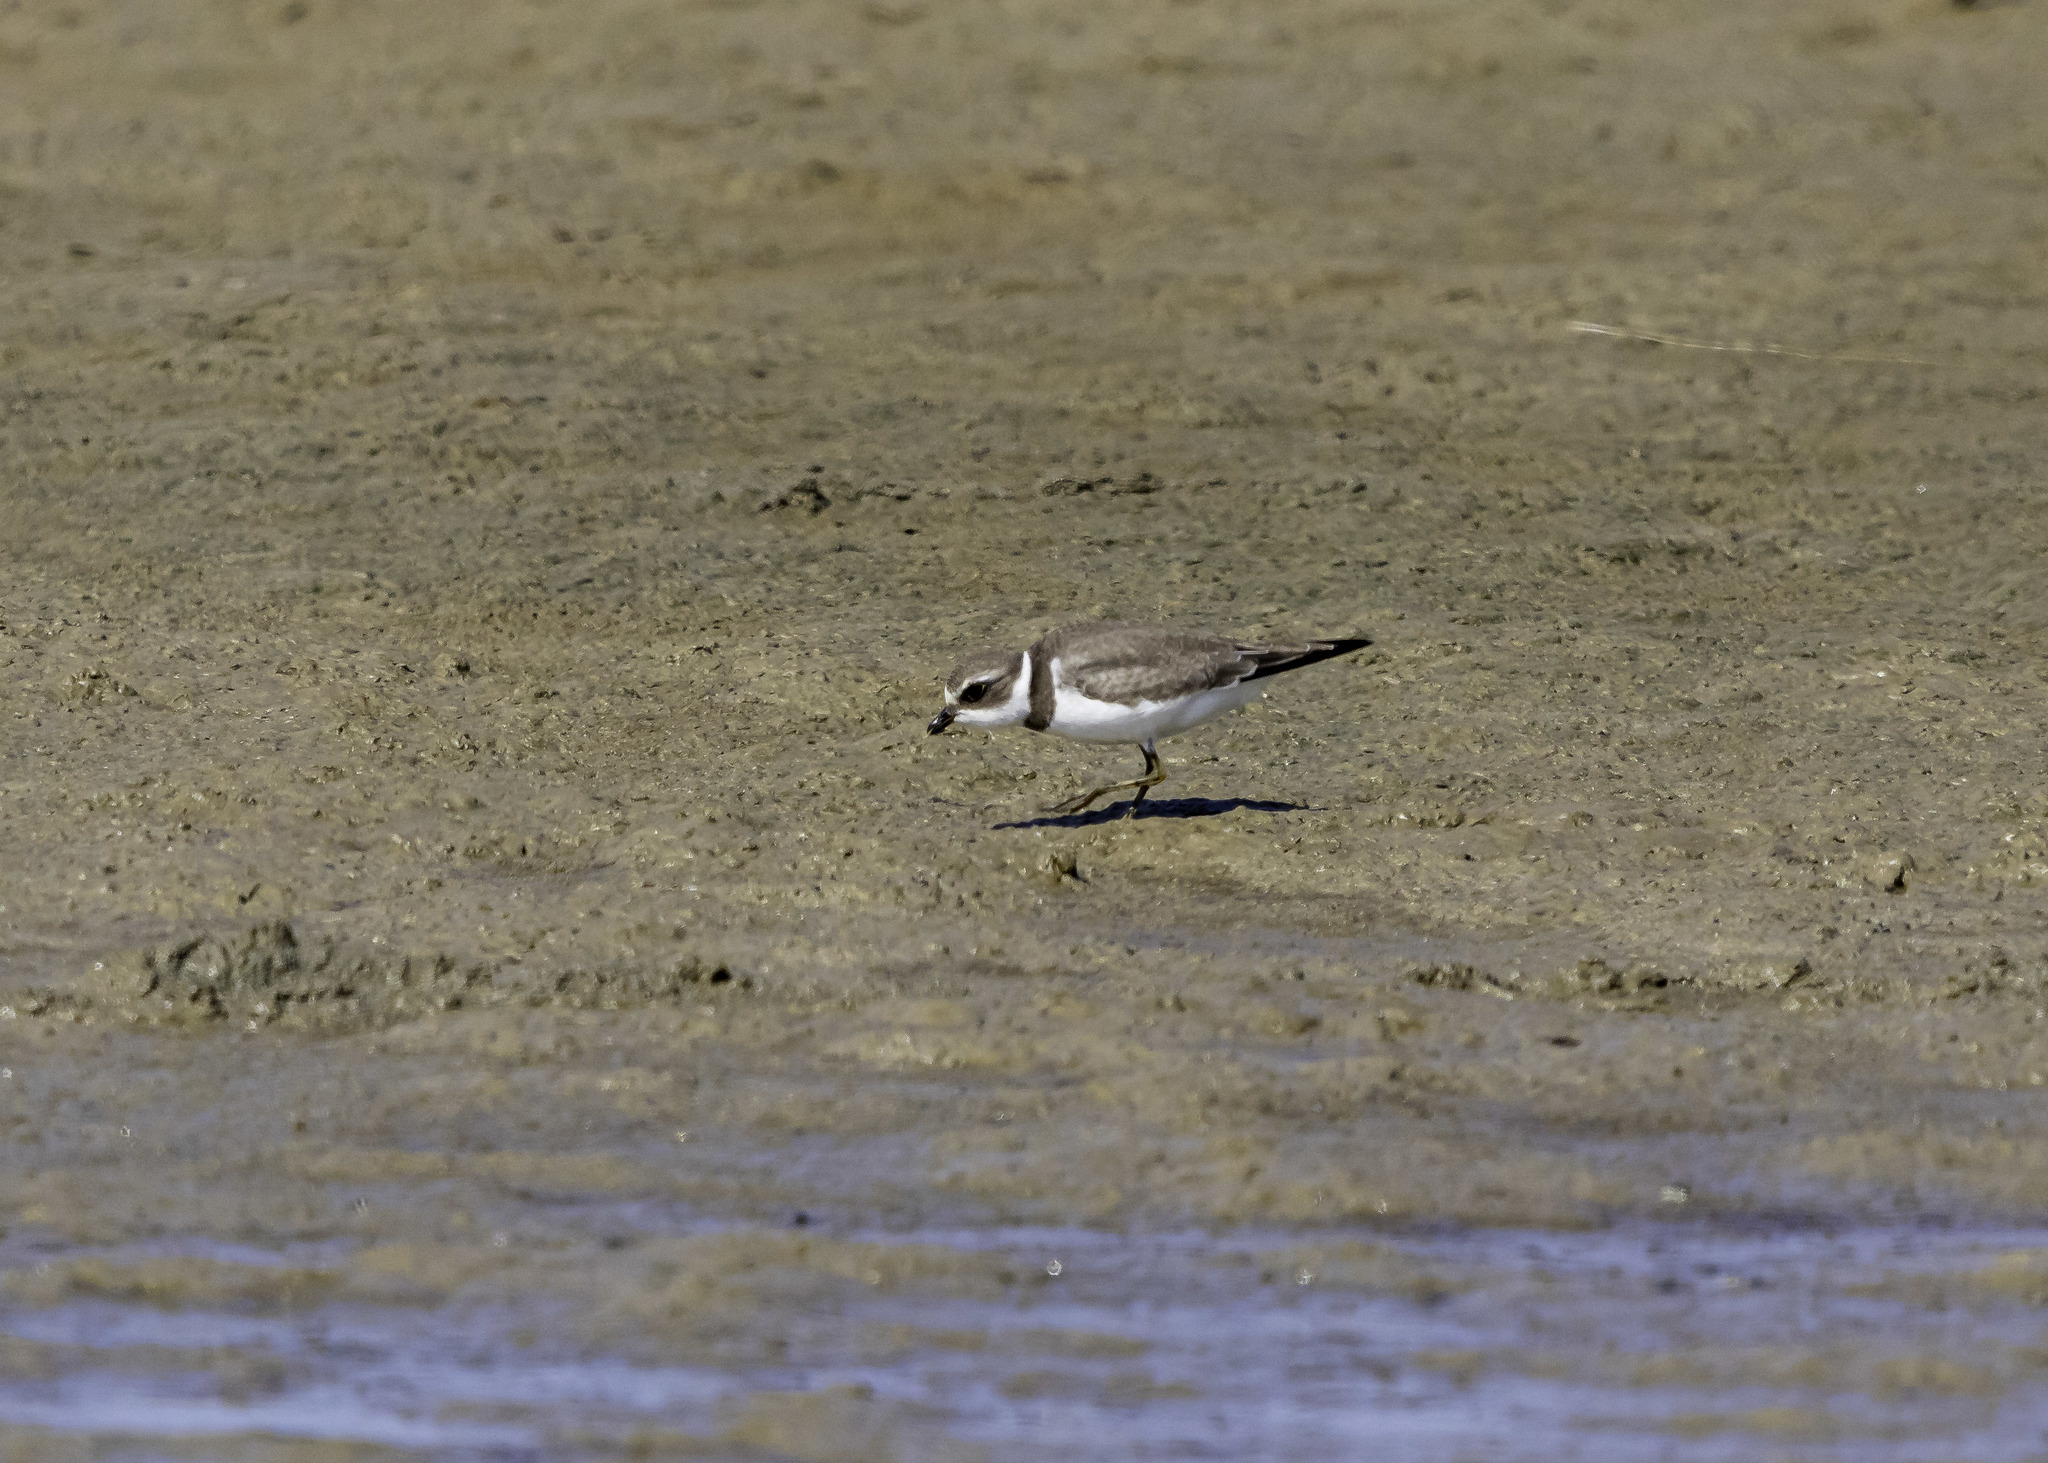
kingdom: Animalia
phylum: Chordata
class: Aves
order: Charadriiformes
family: Charadriidae
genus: Charadrius
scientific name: Charadrius semipalmatus
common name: Semipalmated plover
